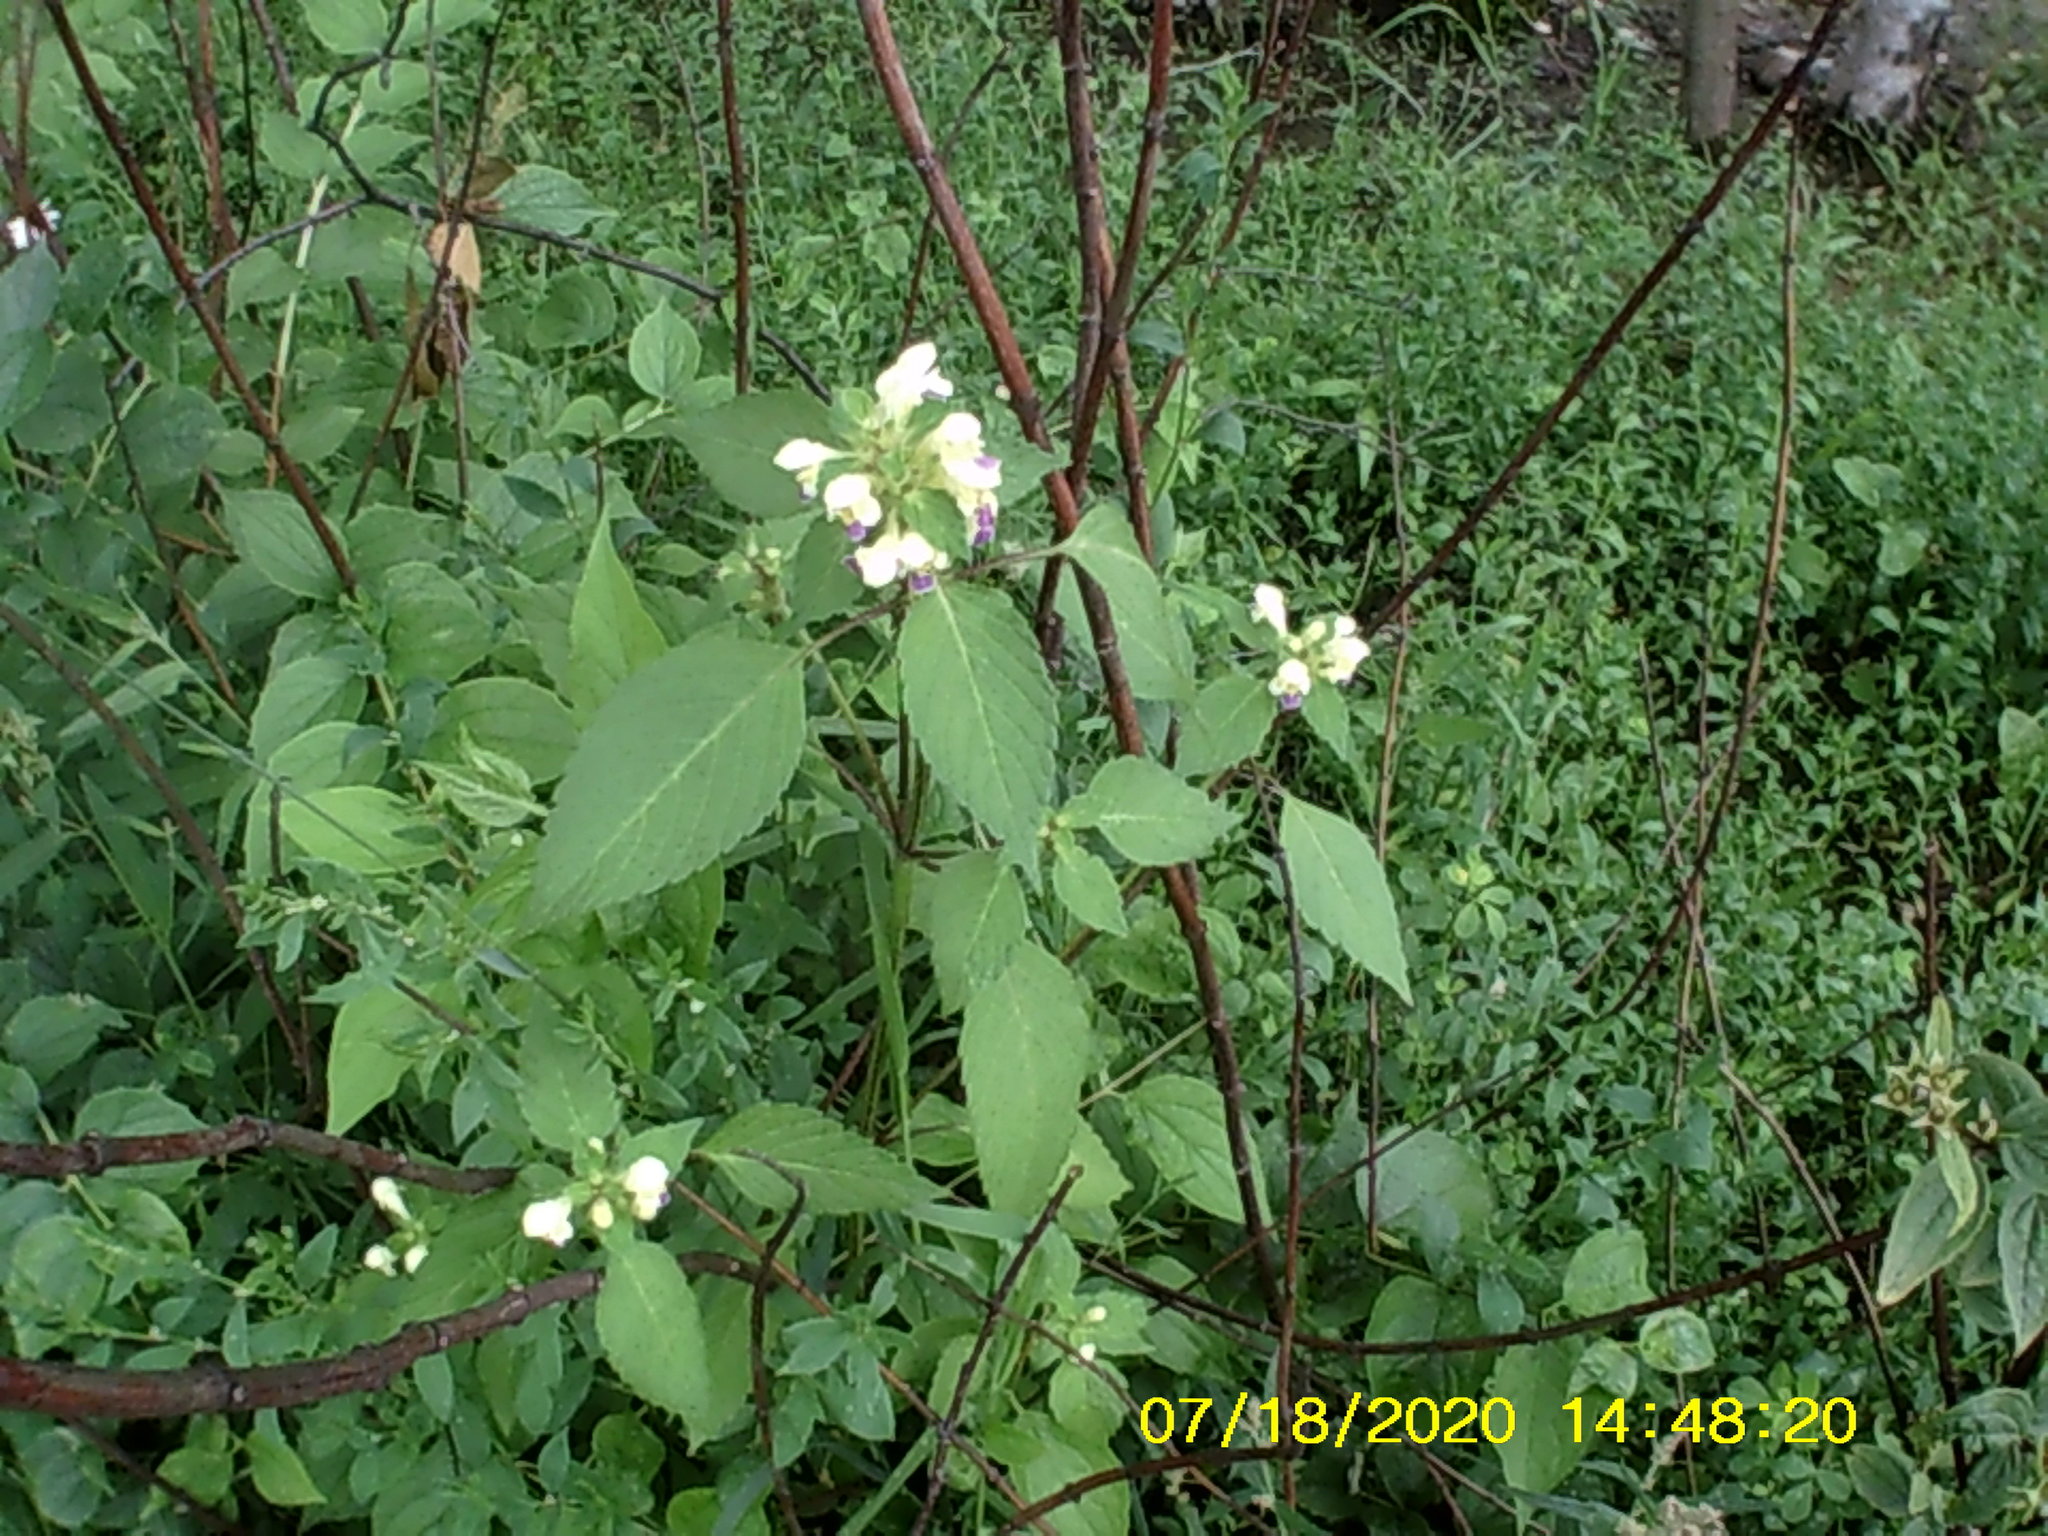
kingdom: Plantae
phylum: Tracheophyta
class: Magnoliopsida
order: Lamiales
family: Lamiaceae
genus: Galeopsis
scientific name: Galeopsis speciosa
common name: Large-flowered hemp-nettle
